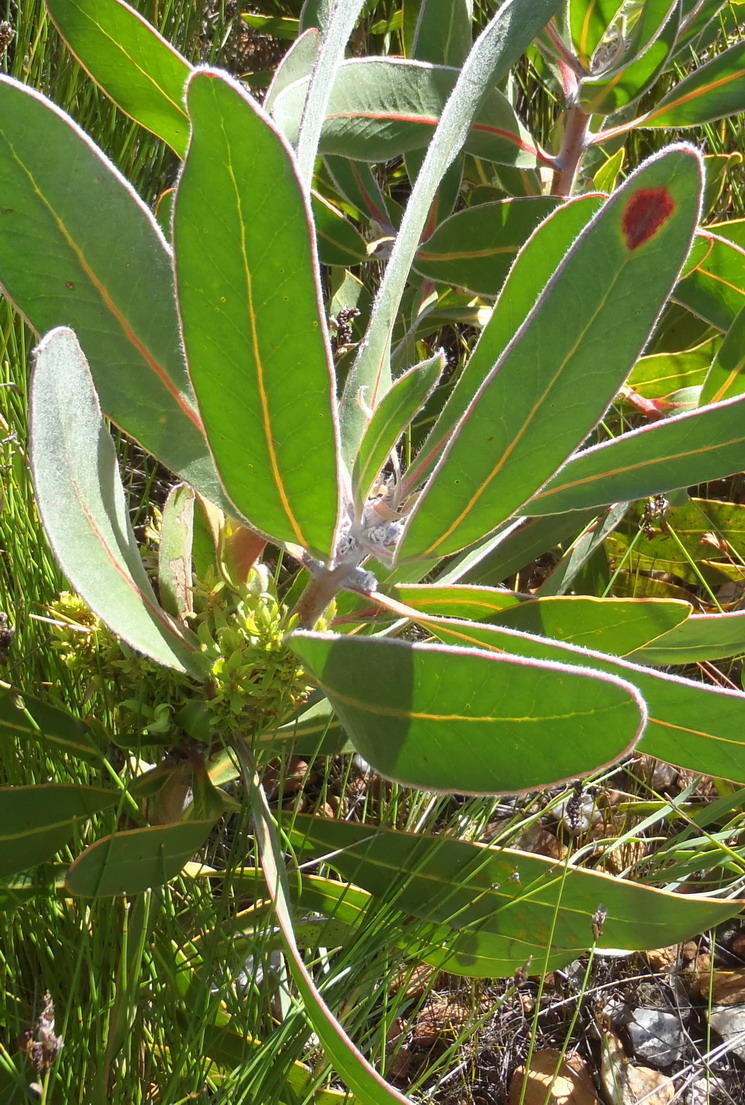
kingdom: Bacteria
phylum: Firmicutes
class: Bacilli
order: Acholeplasmatales
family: Acholeplasmataceae
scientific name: Acholeplasmataceae
